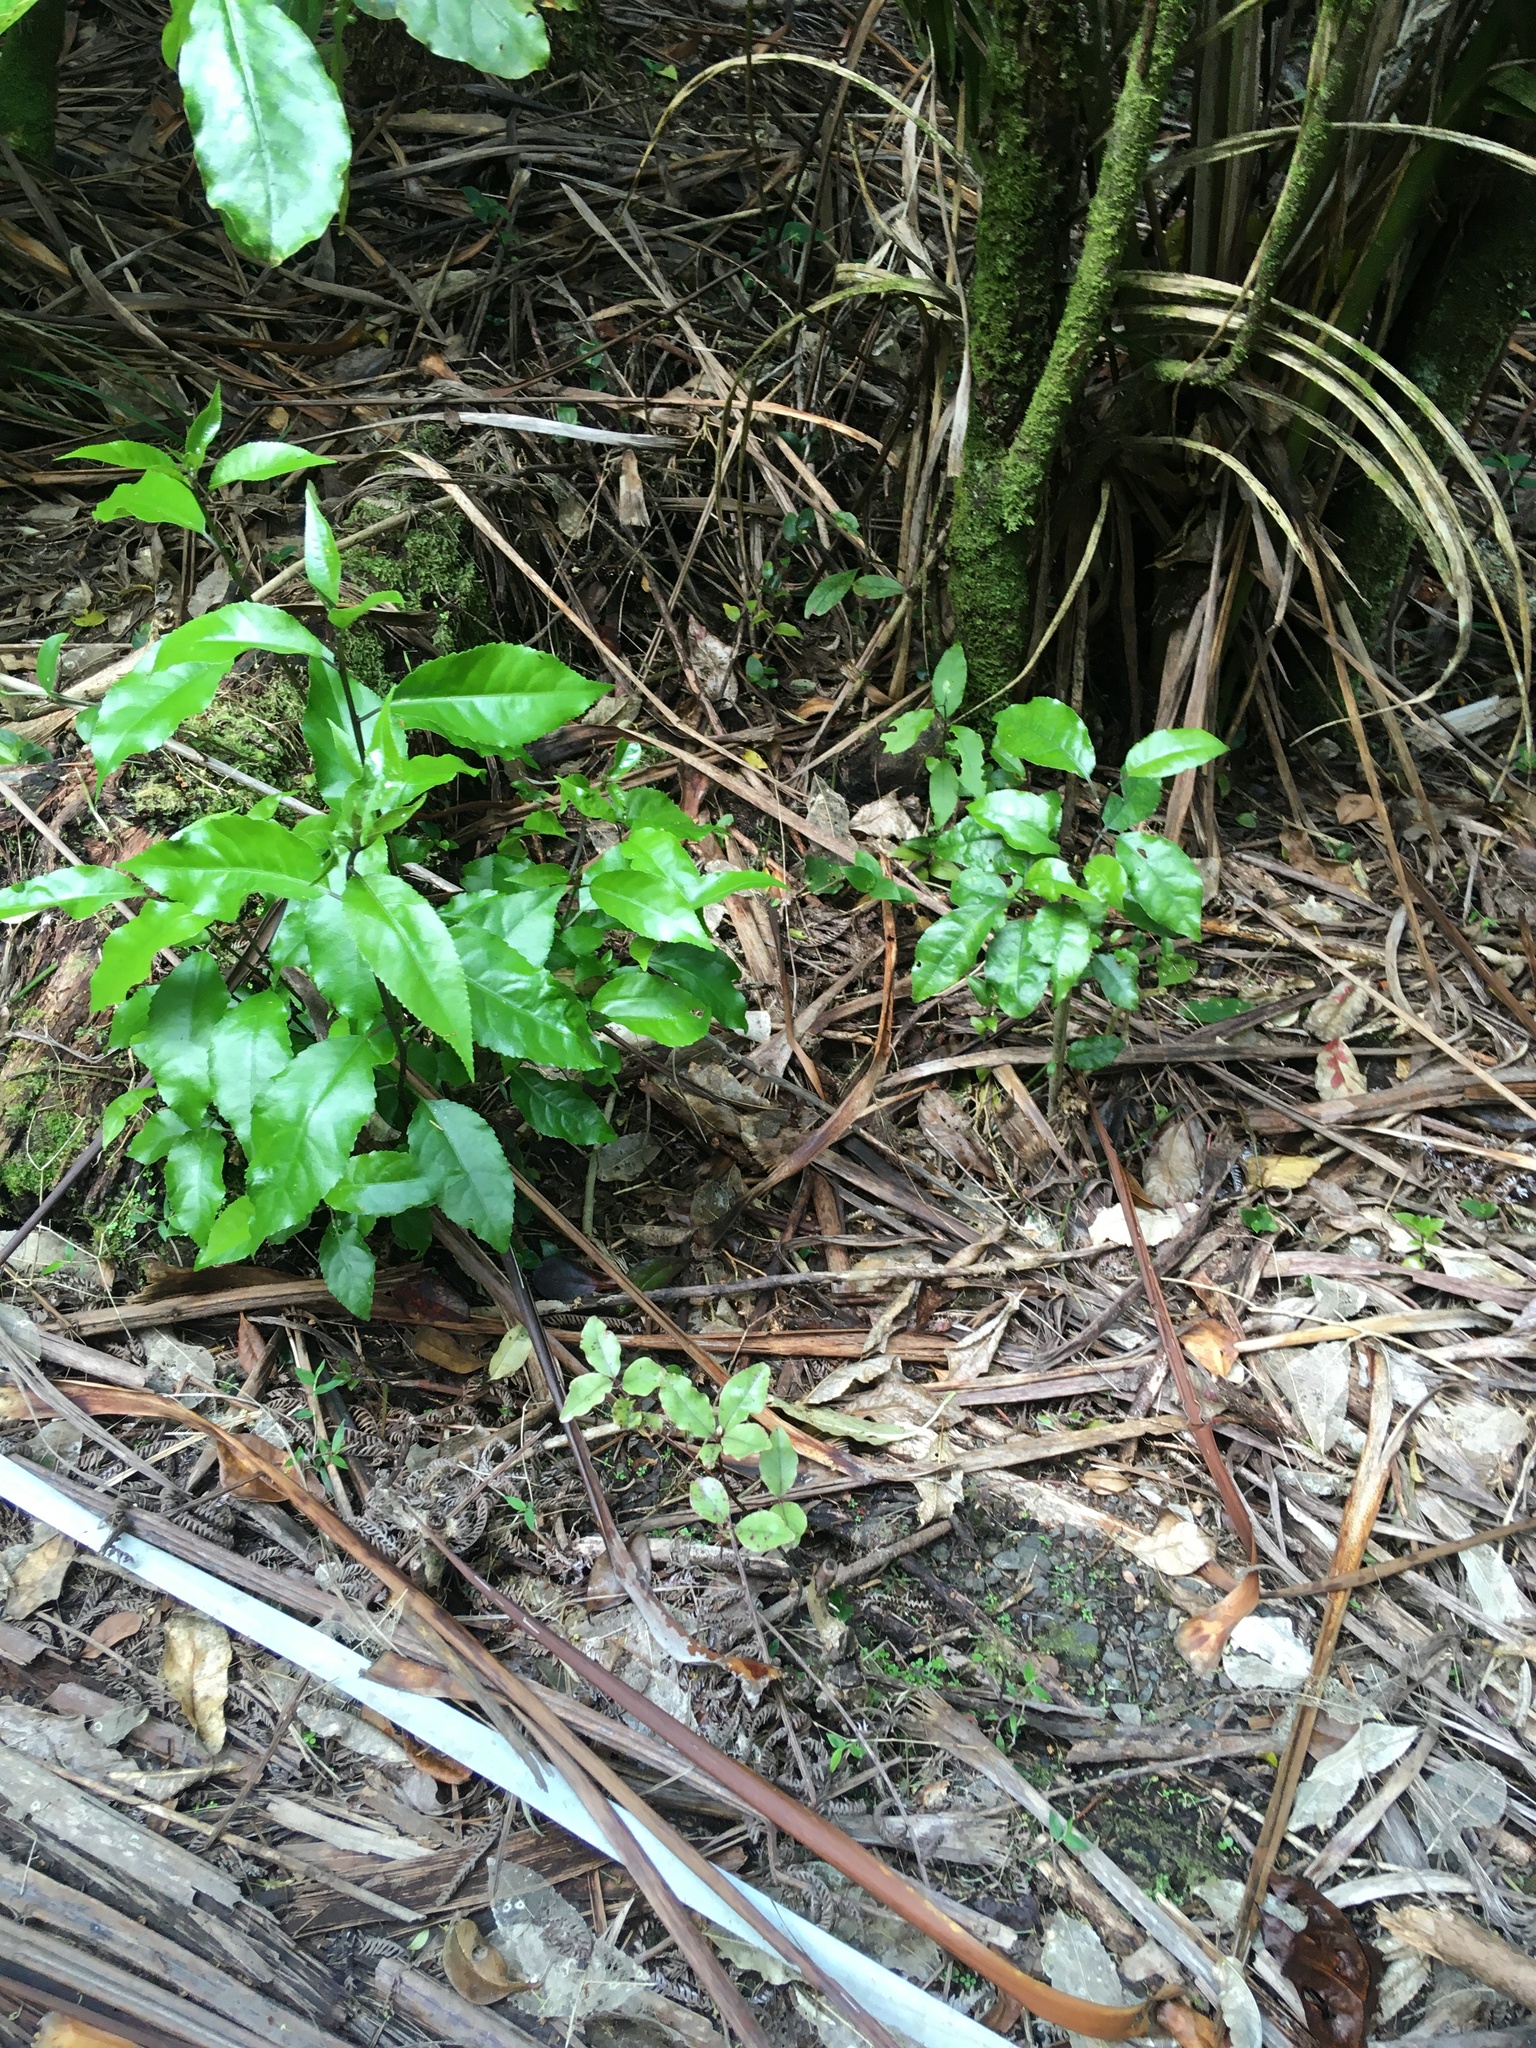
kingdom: Plantae
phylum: Tracheophyta
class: Magnoliopsida
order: Malpighiales
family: Violaceae
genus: Melicytus
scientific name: Melicytus ramiflorus
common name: Mahoe
